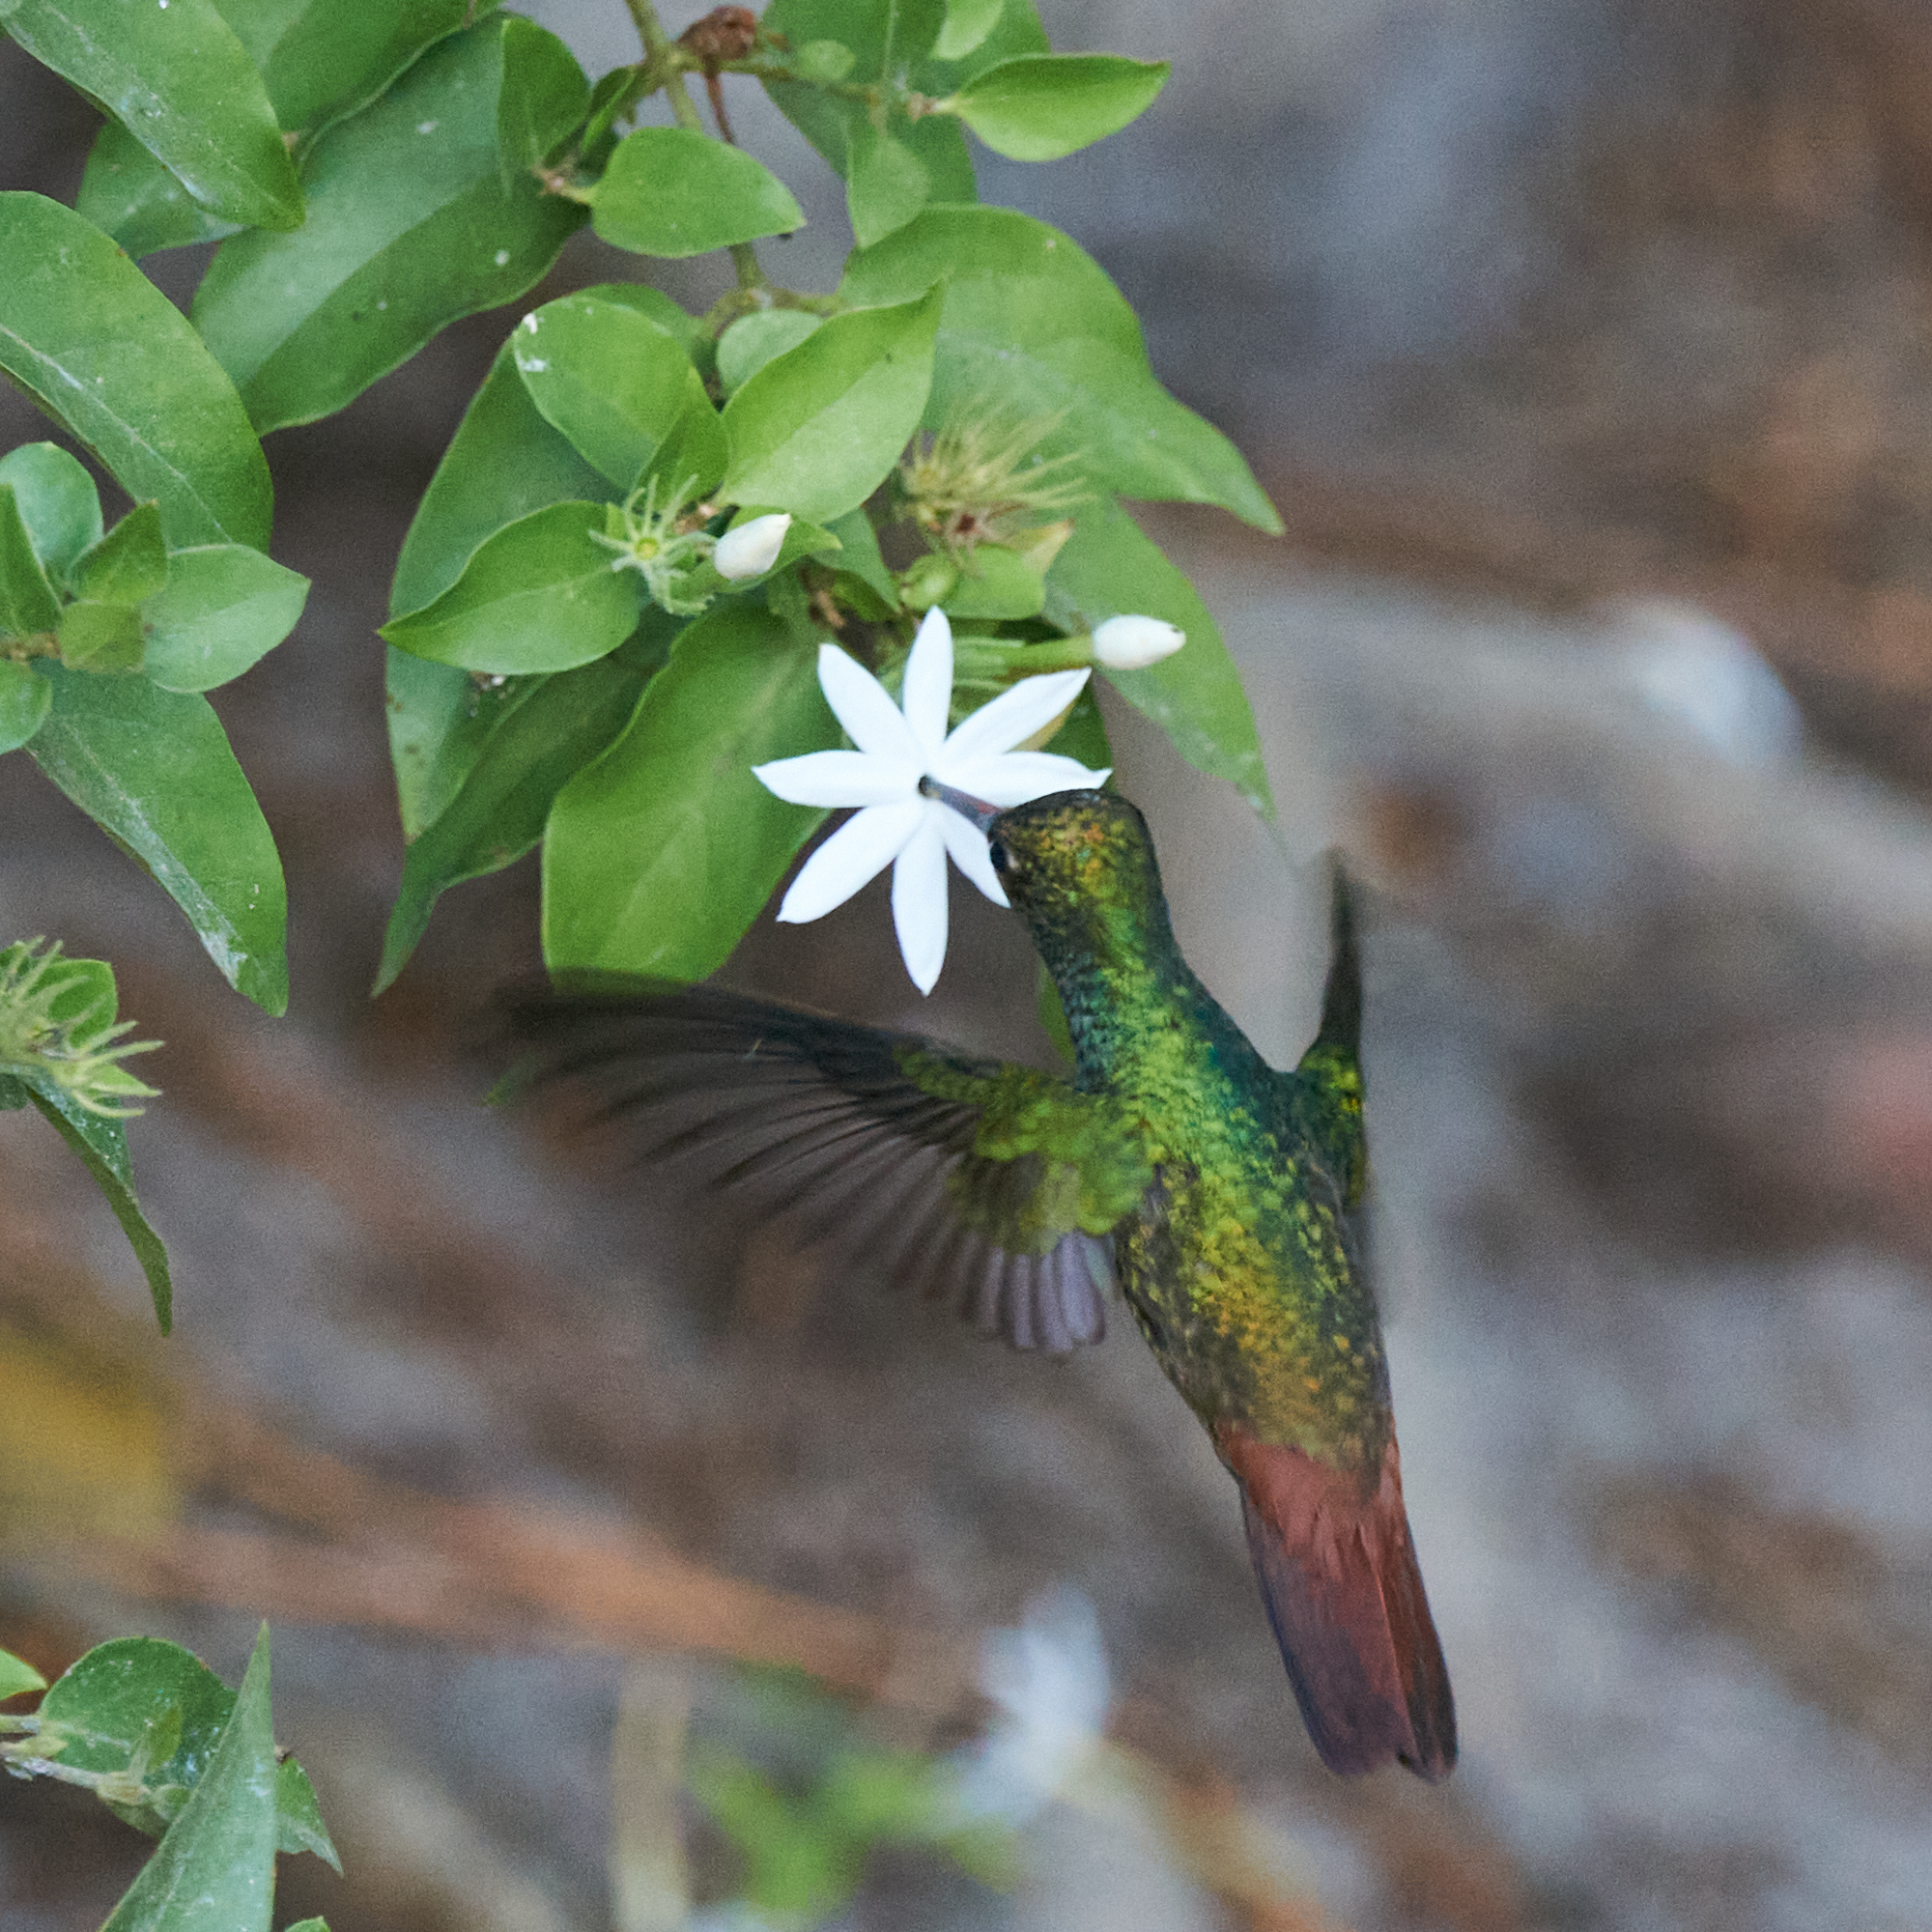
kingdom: Animalia
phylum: Chordata
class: Aves
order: Apodiformes
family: Trochilidae
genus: Amazilia
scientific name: Amazilia tzacatl
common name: Rufous-tailed hummingbird
